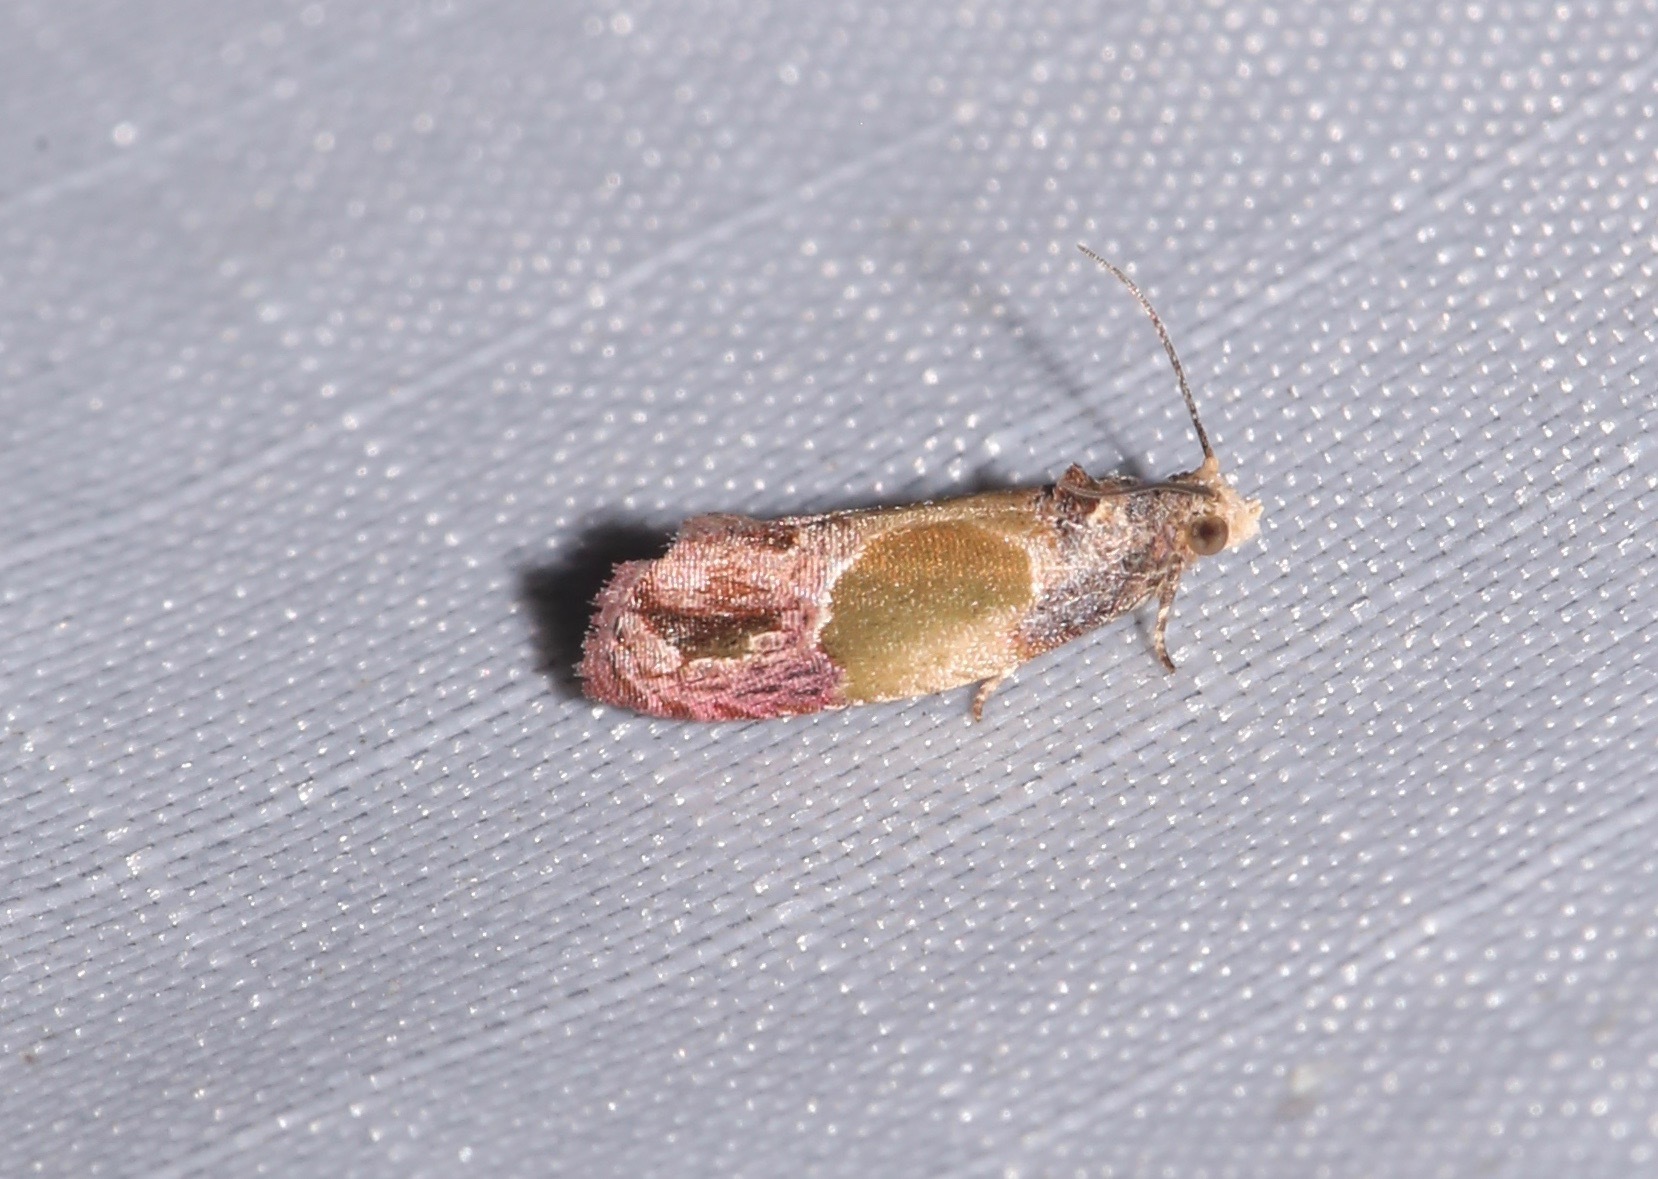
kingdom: Animalia
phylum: Arthropoda
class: Insecta
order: Lepidoptera
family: Tortricidae
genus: Eumarozia
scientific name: Eumarozia malachitana
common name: Sculptured moth
